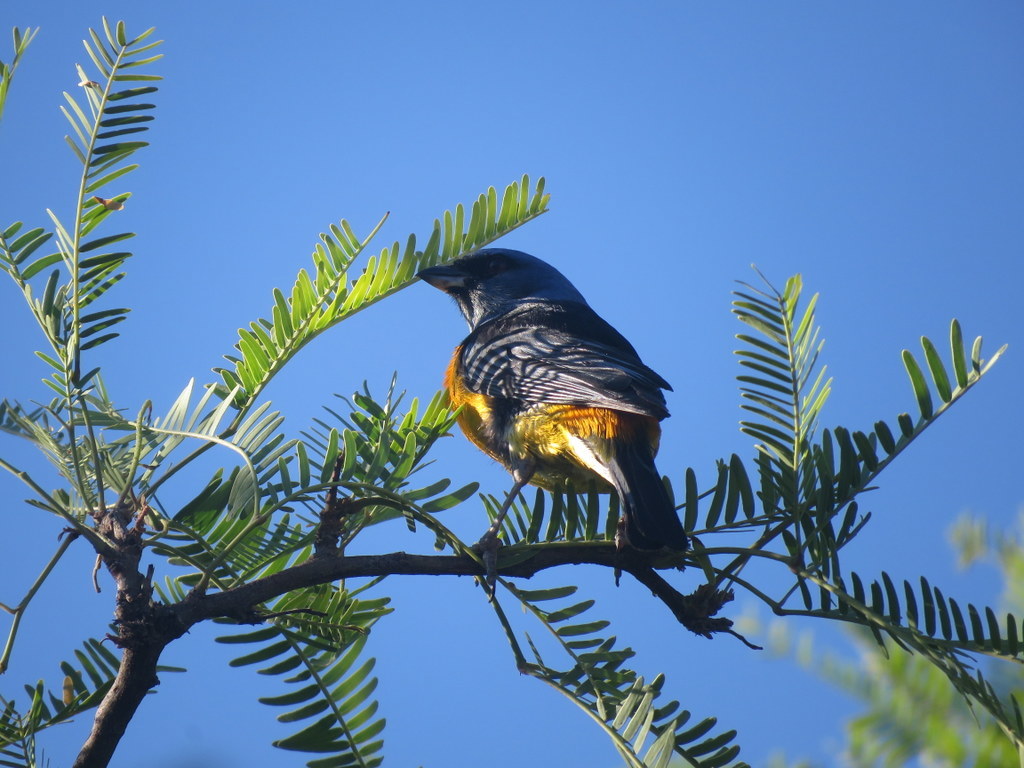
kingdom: Animalia
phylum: Chordata
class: Aves
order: Passeriformes
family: Thraupidae
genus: Rauenia
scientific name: Rauenia bonariensis
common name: Blue-and-yellow tanager
